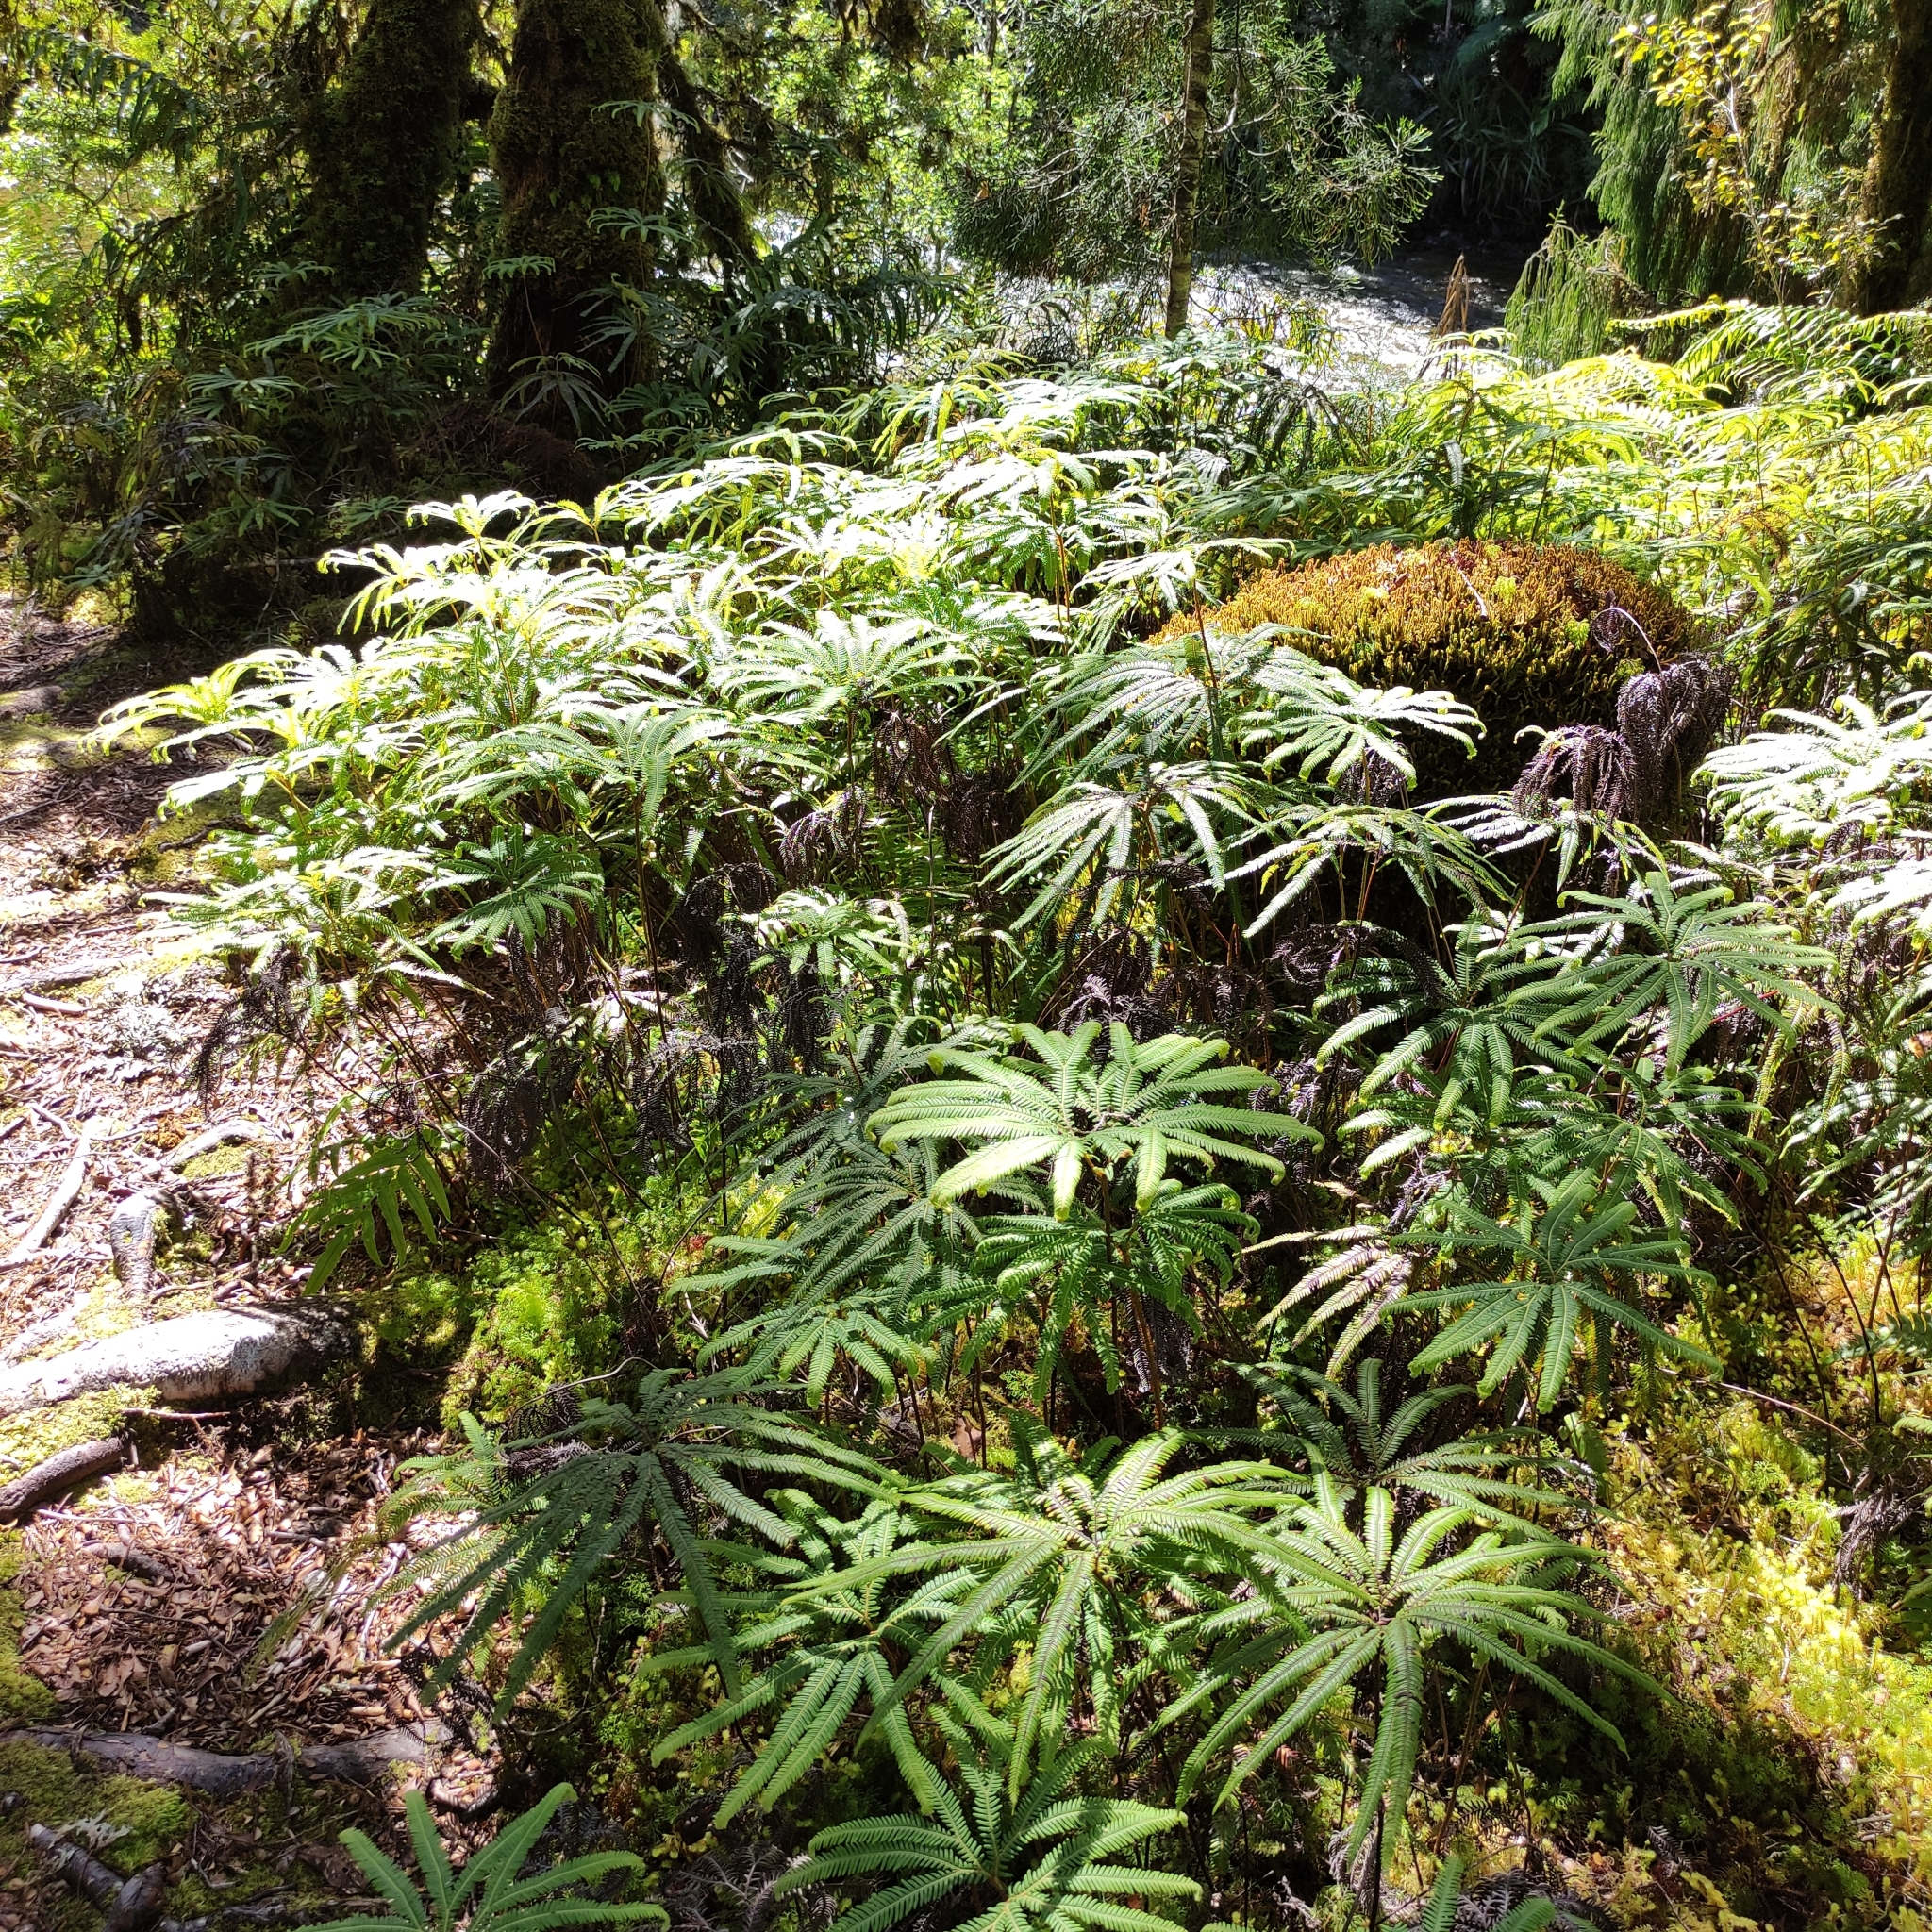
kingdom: Plantae
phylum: Tracheophyta
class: Polypodiopsida
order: Gleicheniales
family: Gleicheniaceae
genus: Sticherus
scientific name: Sticherus cunninghamii
